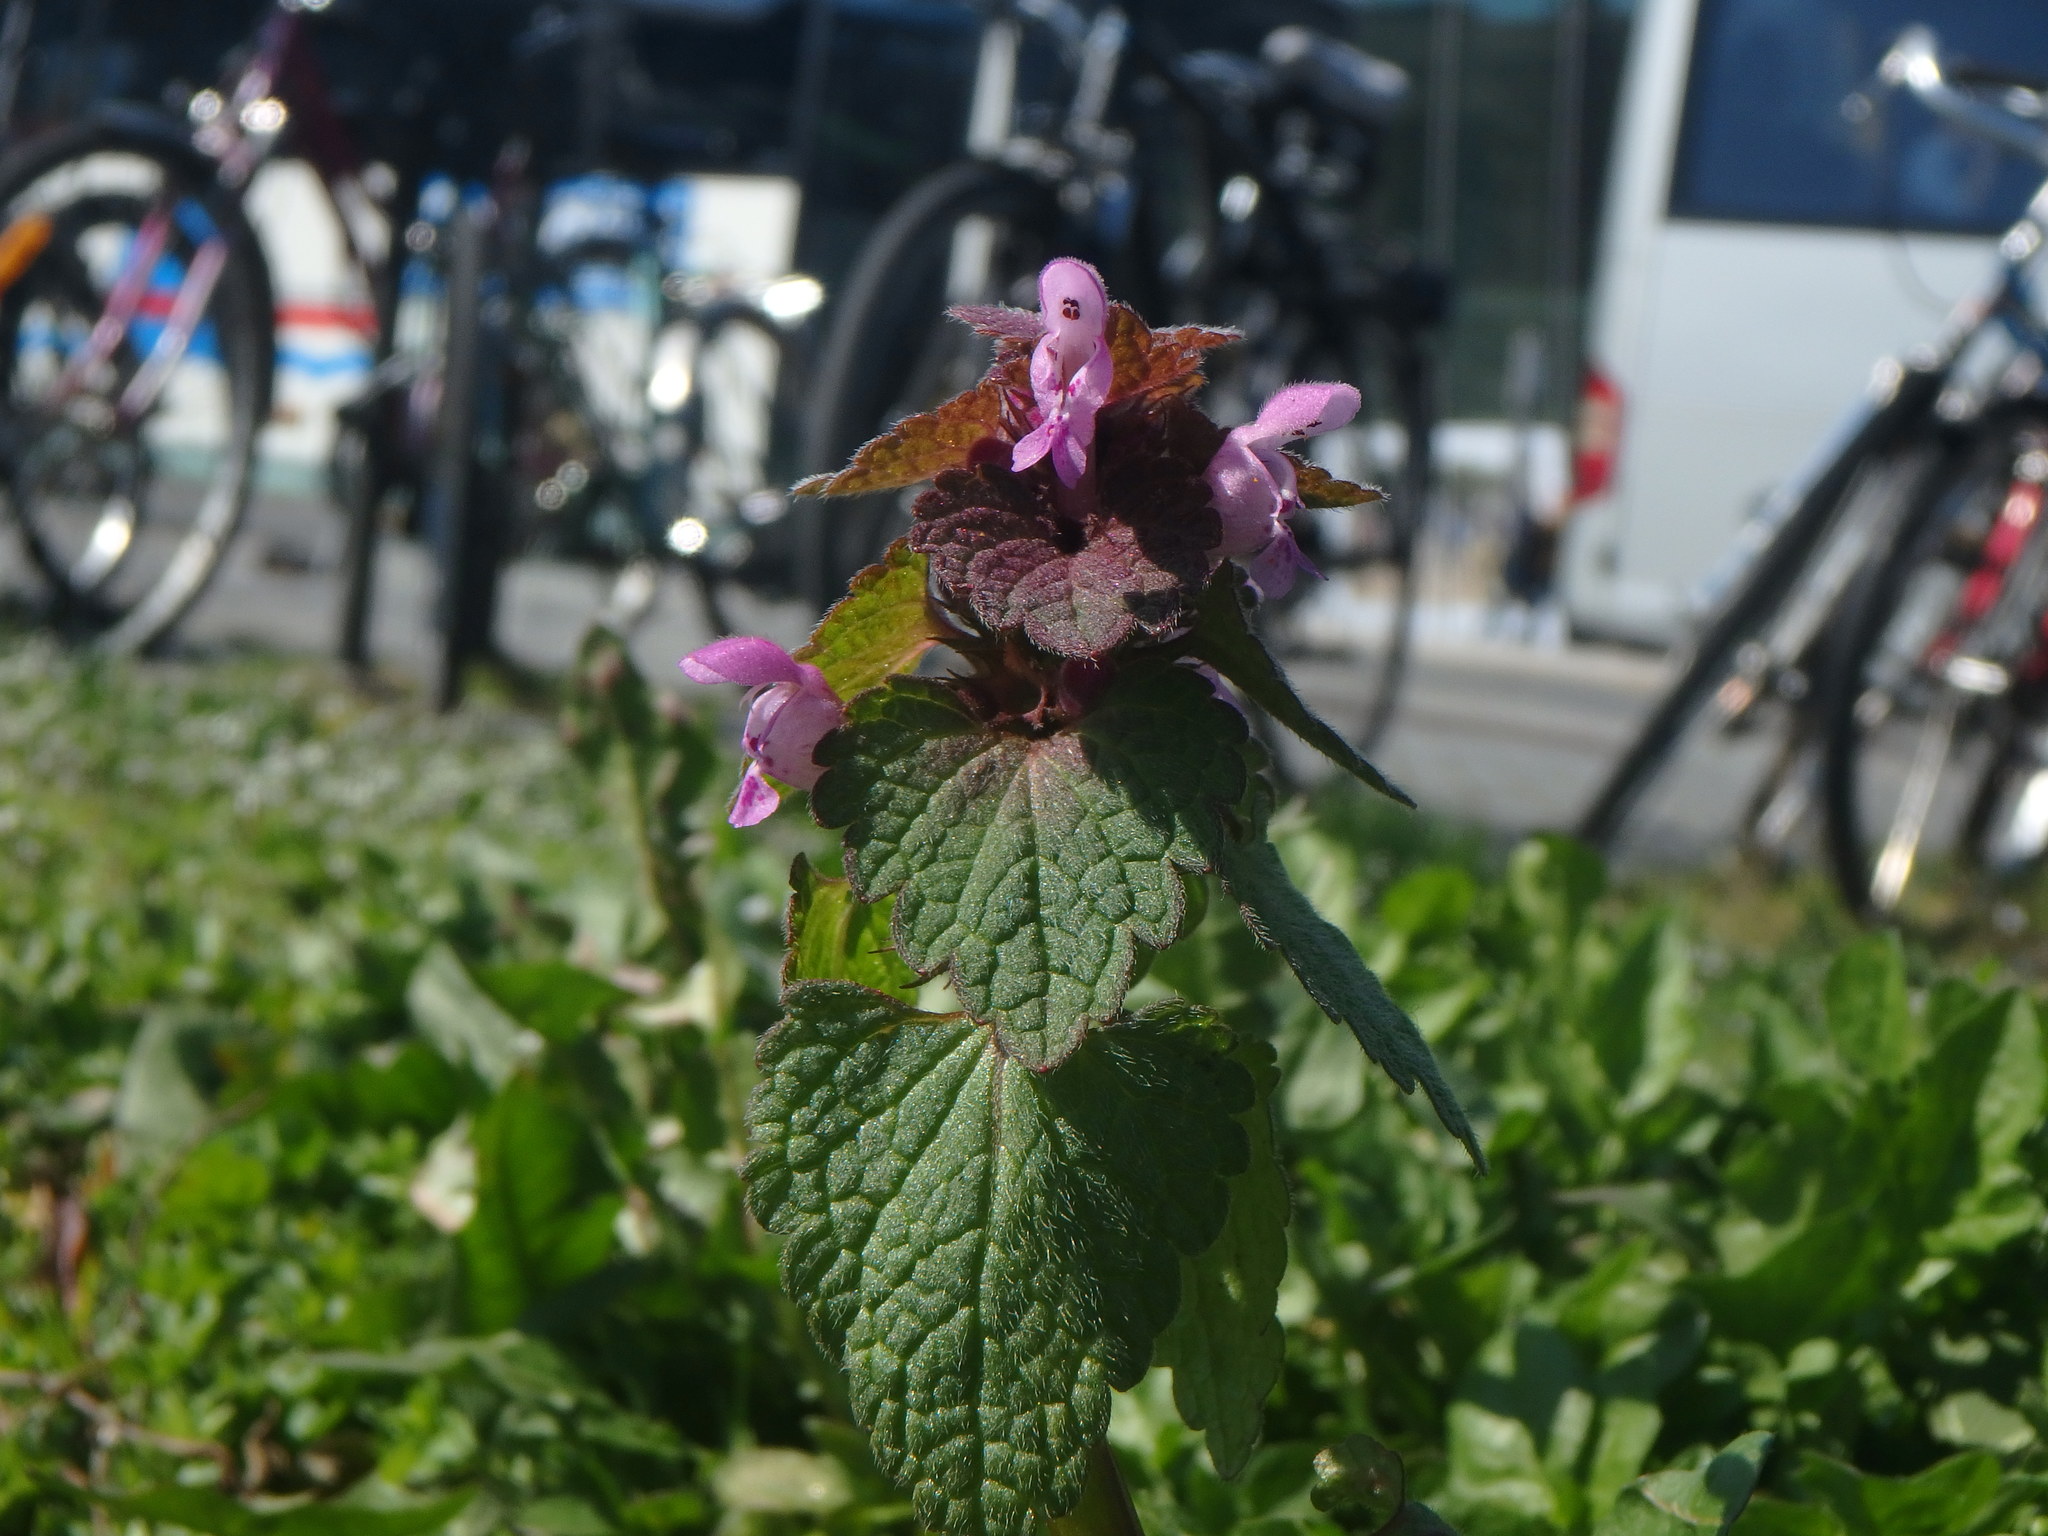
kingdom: Plantae
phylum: Tracheophyta
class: Magnoliopsida
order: Lamiales
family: Lamiaceae
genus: Lamium
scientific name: Lamium purpureum
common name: Red dead-nettle
